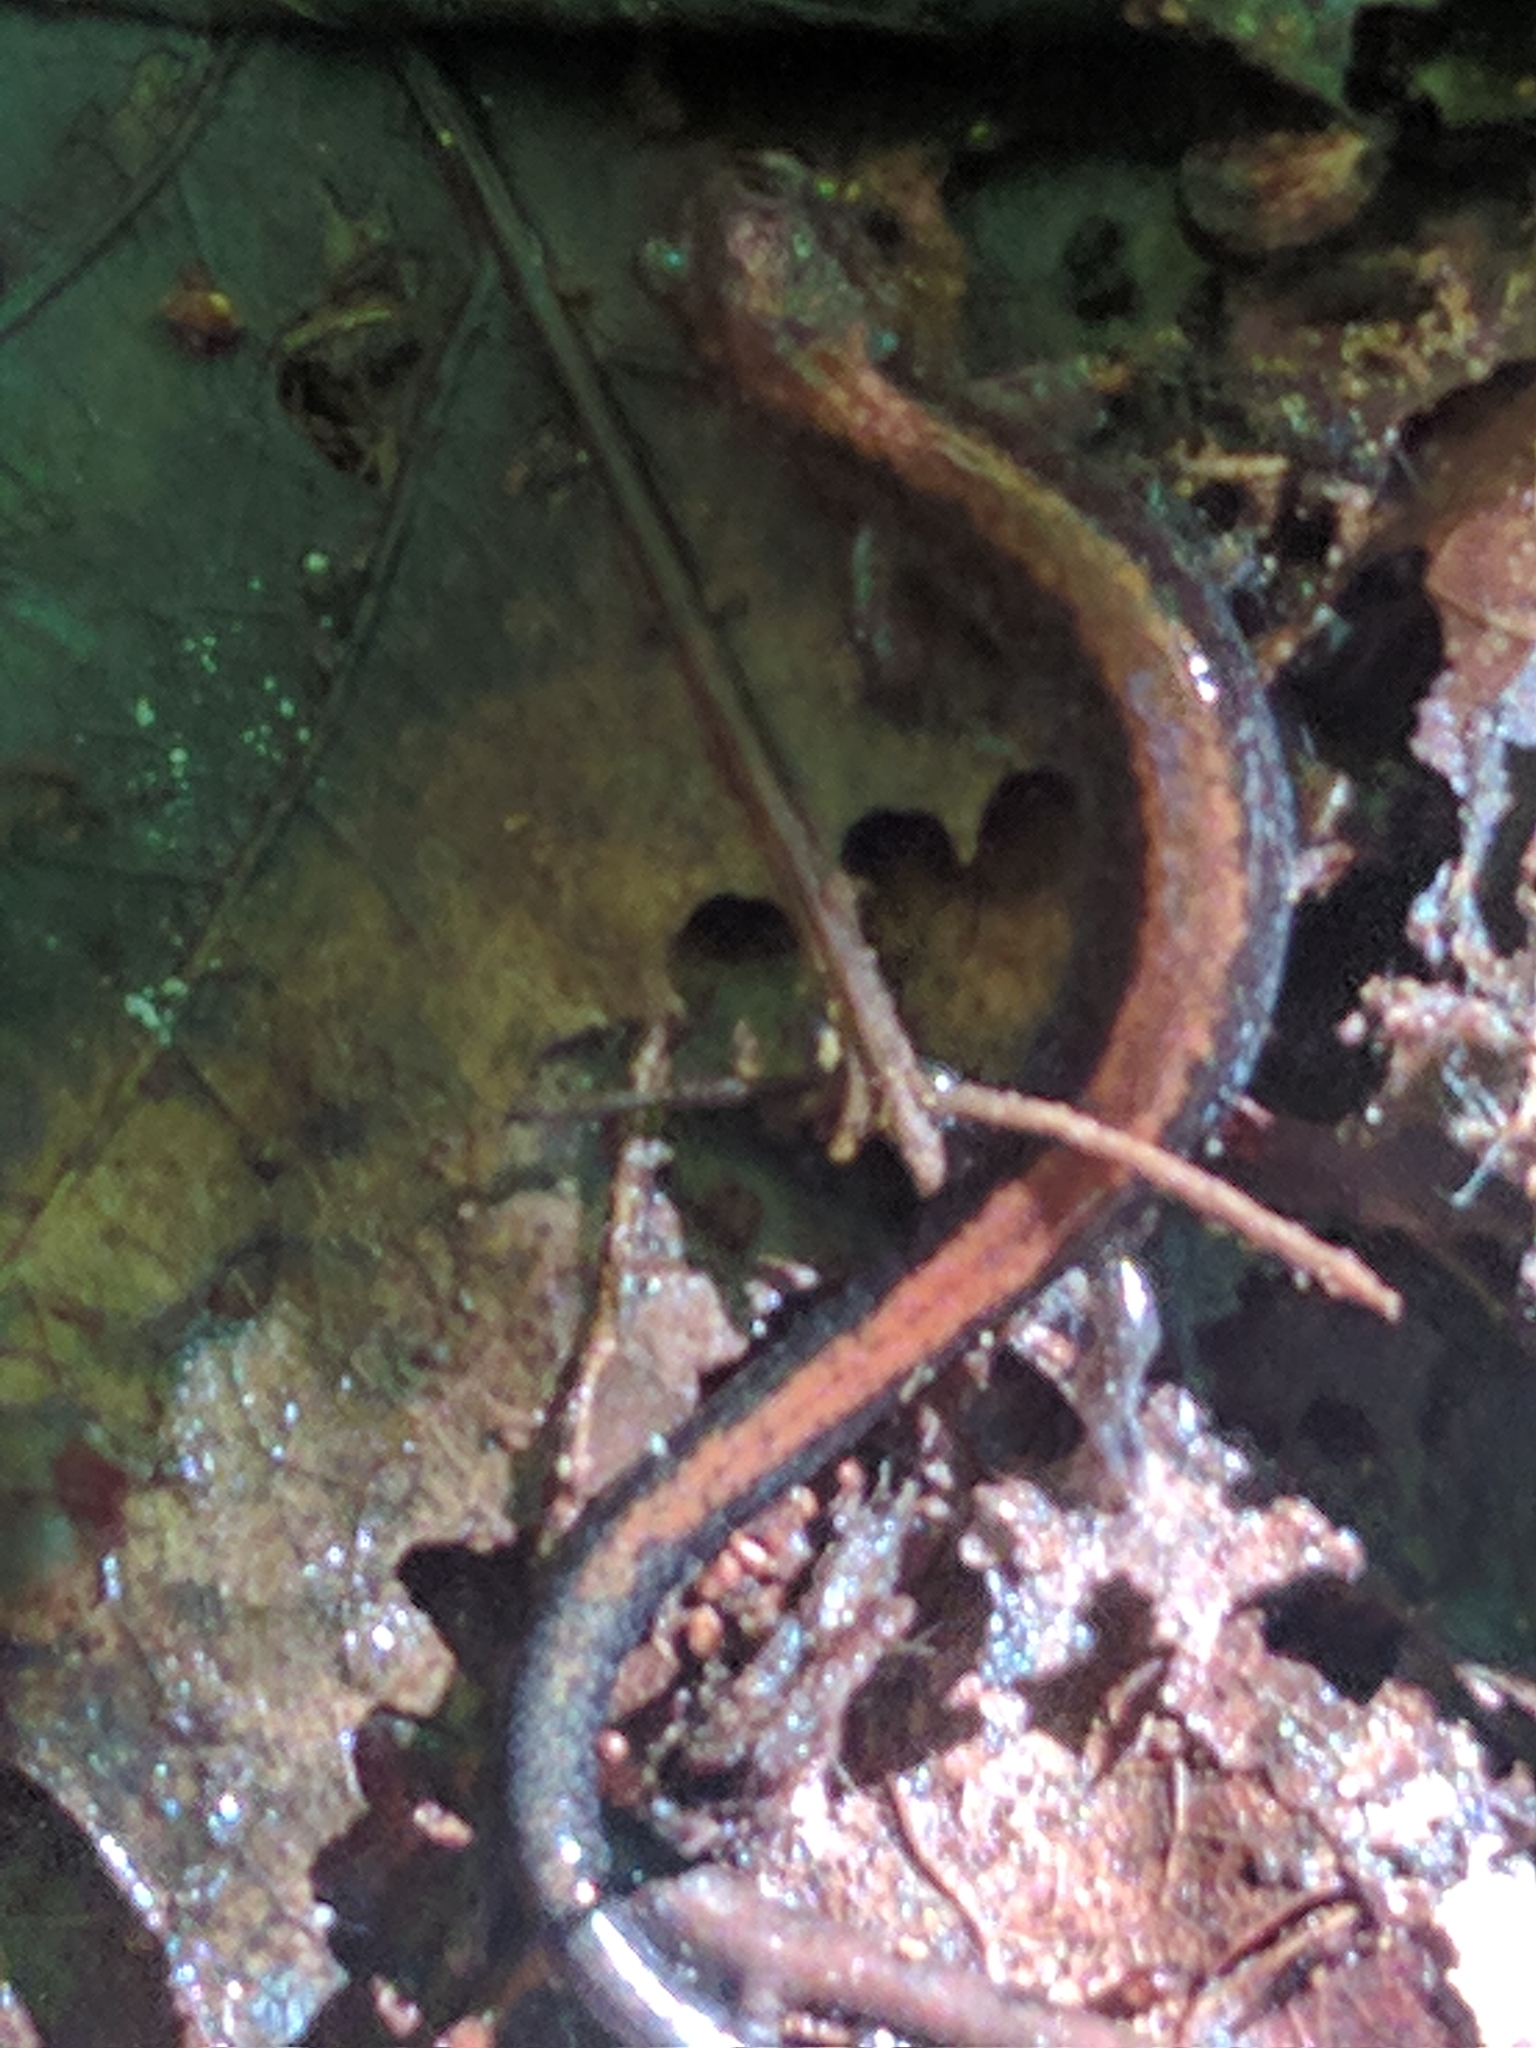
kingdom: Animalia
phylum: Chordata
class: Amphibia
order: Caudata
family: Plethodontidae
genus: Plethodon
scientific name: Plethodon cinereus
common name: Redback salamander
